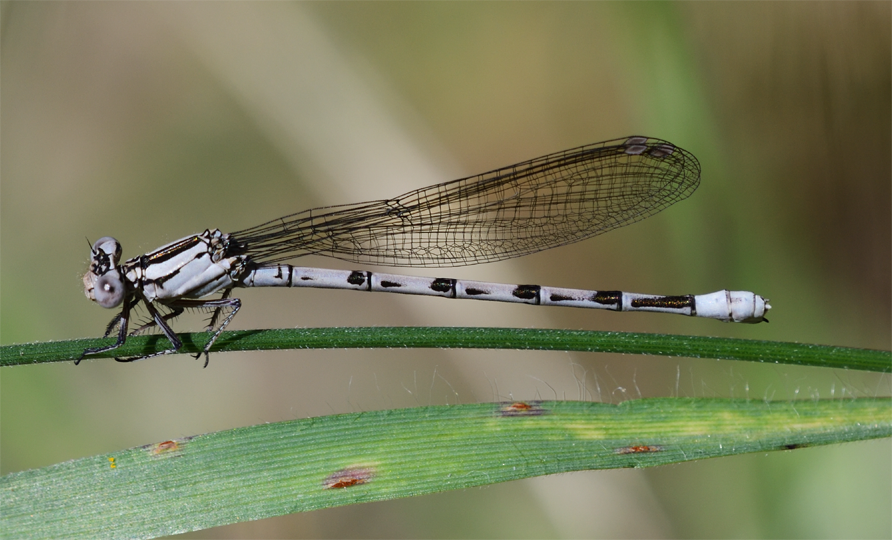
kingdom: Animalia
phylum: Arthropoda
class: Insecta
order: Odonata
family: Coenagrionidae
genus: Argia
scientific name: Argia vivida
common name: Vivid dancer
